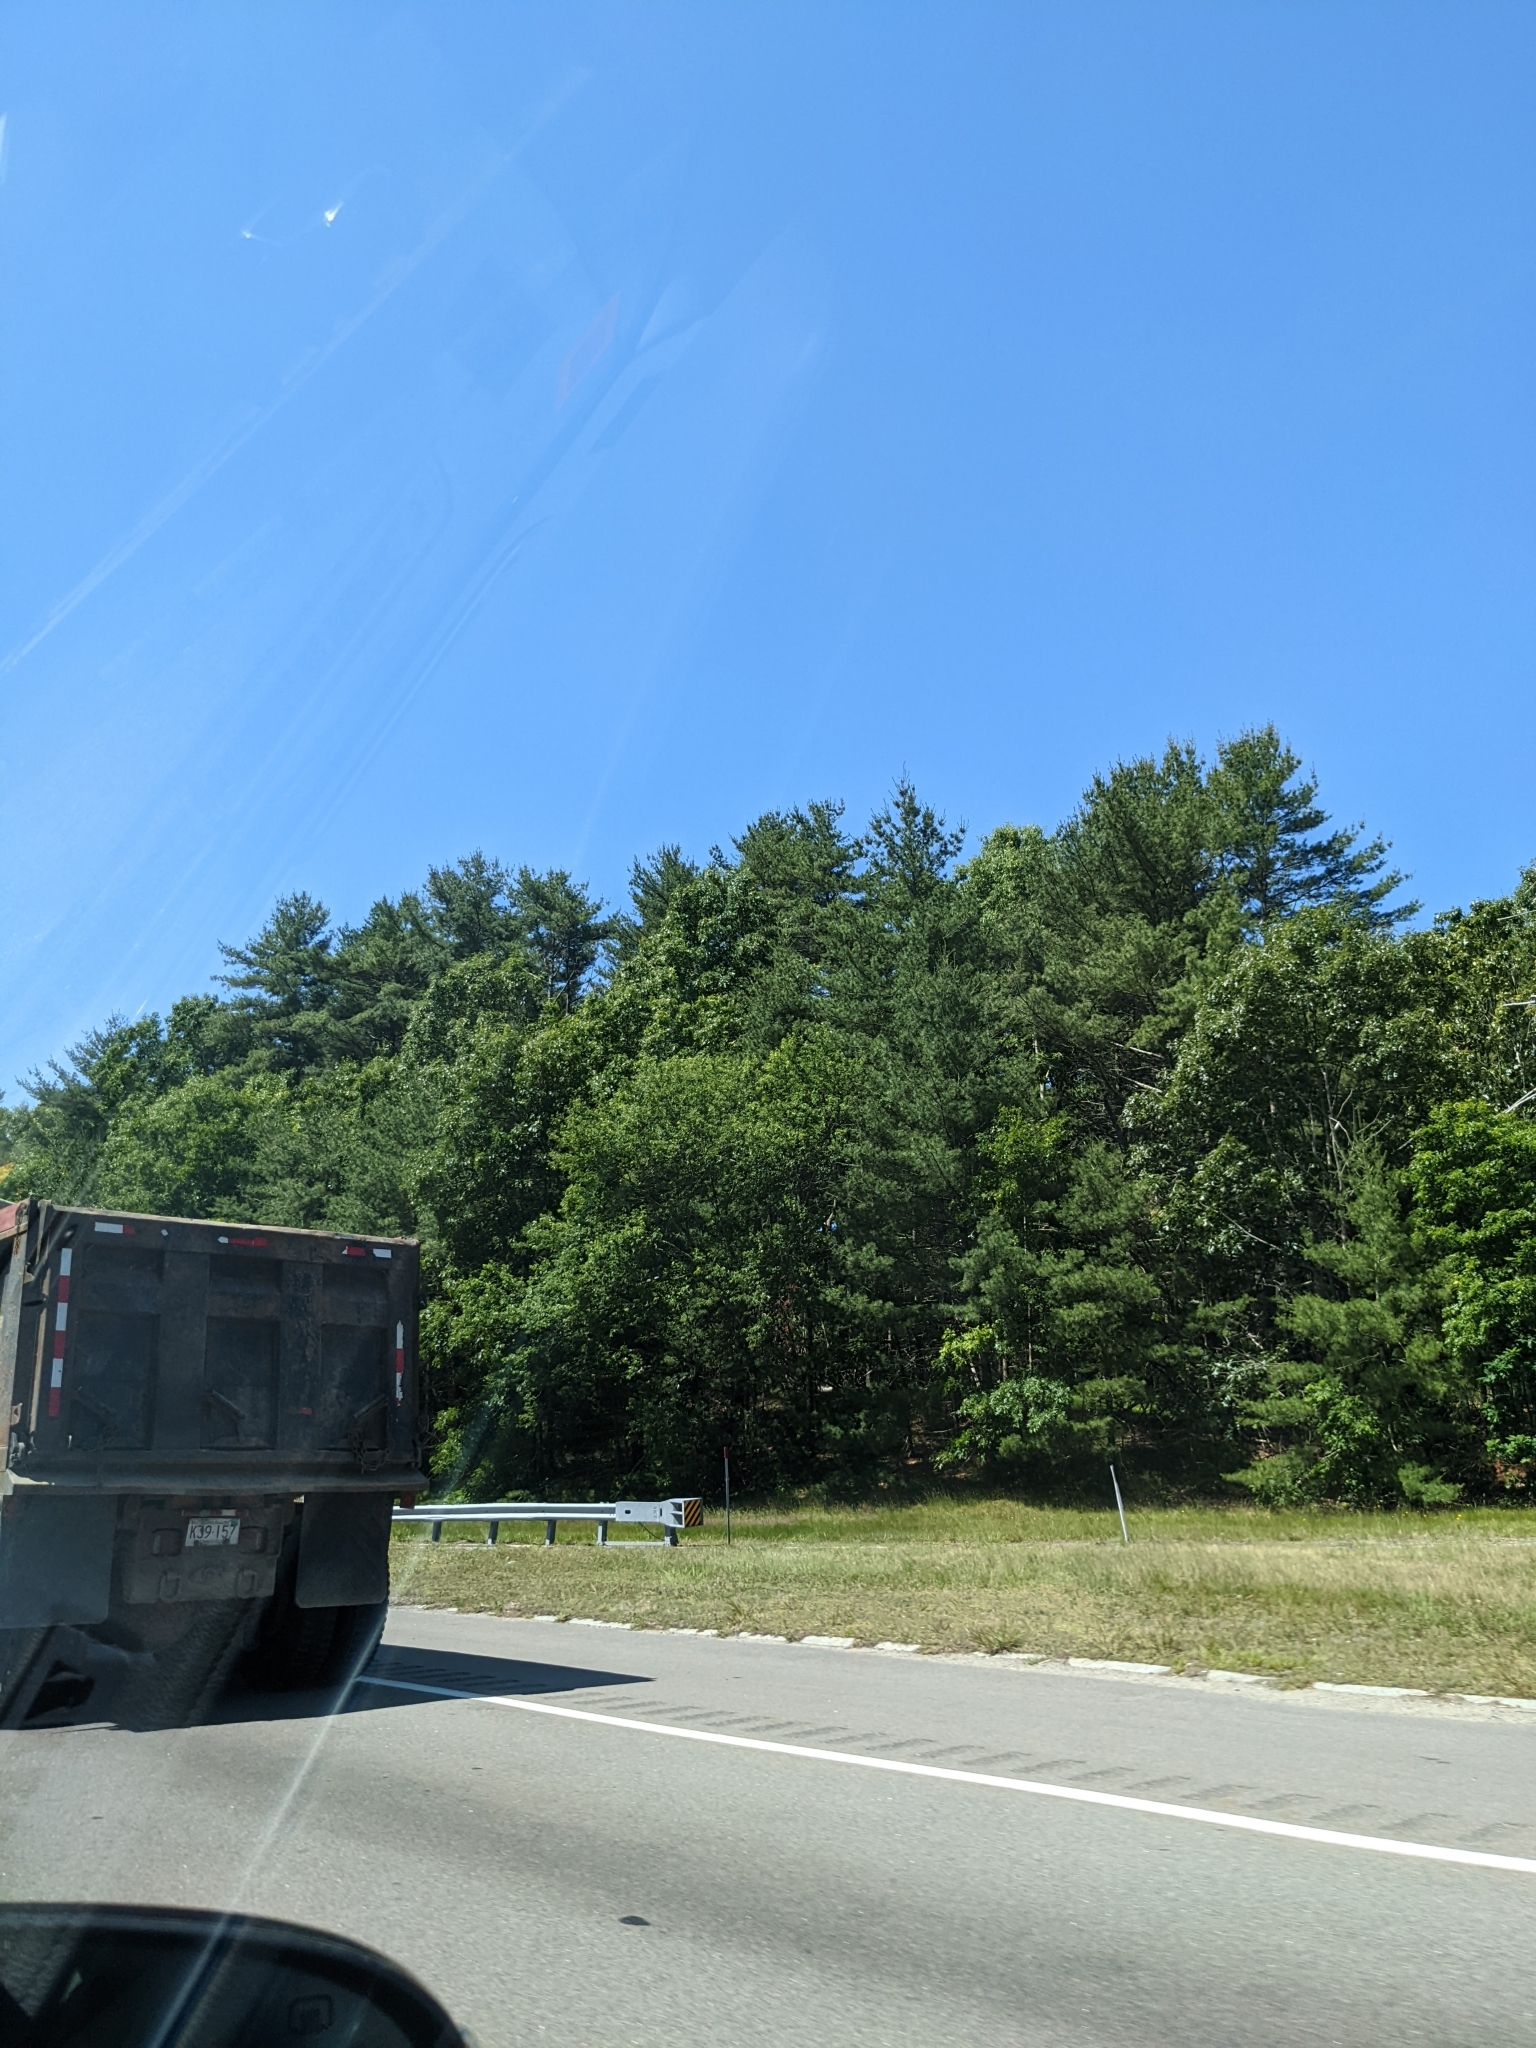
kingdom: Plantae
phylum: Tracheophyta
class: Pinopsida
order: Pinales
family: Pinaceae
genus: Pinus
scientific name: Pinus strobus
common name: Weymouth pine
